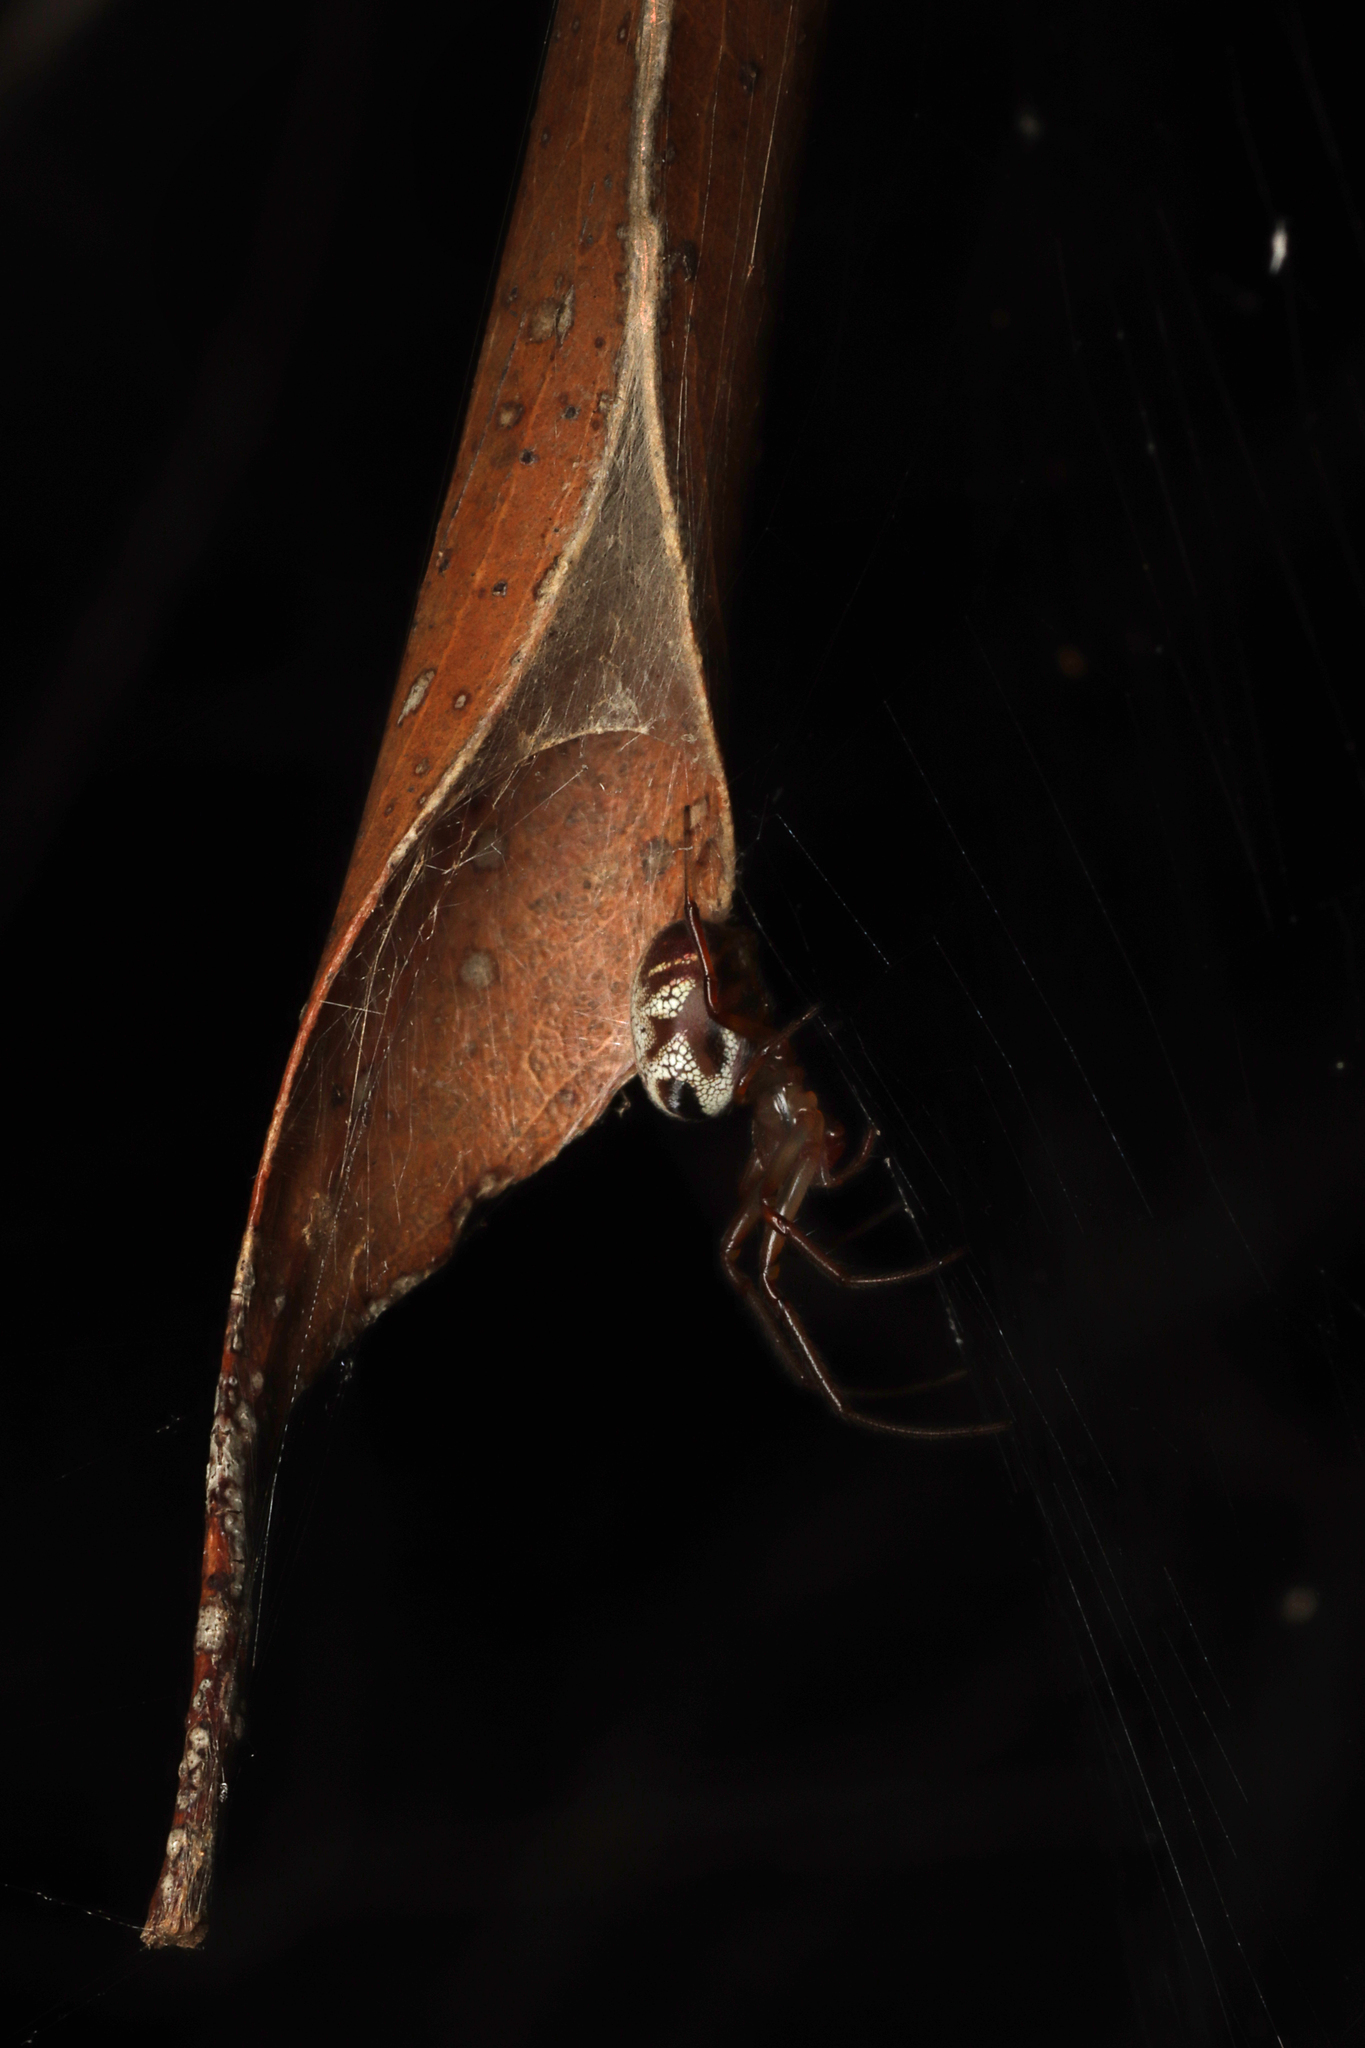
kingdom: Animalia
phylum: Arthropoda
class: Arachnida
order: Araneae
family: Araneidae
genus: Phonognatha
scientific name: Phonognatha graeffei
